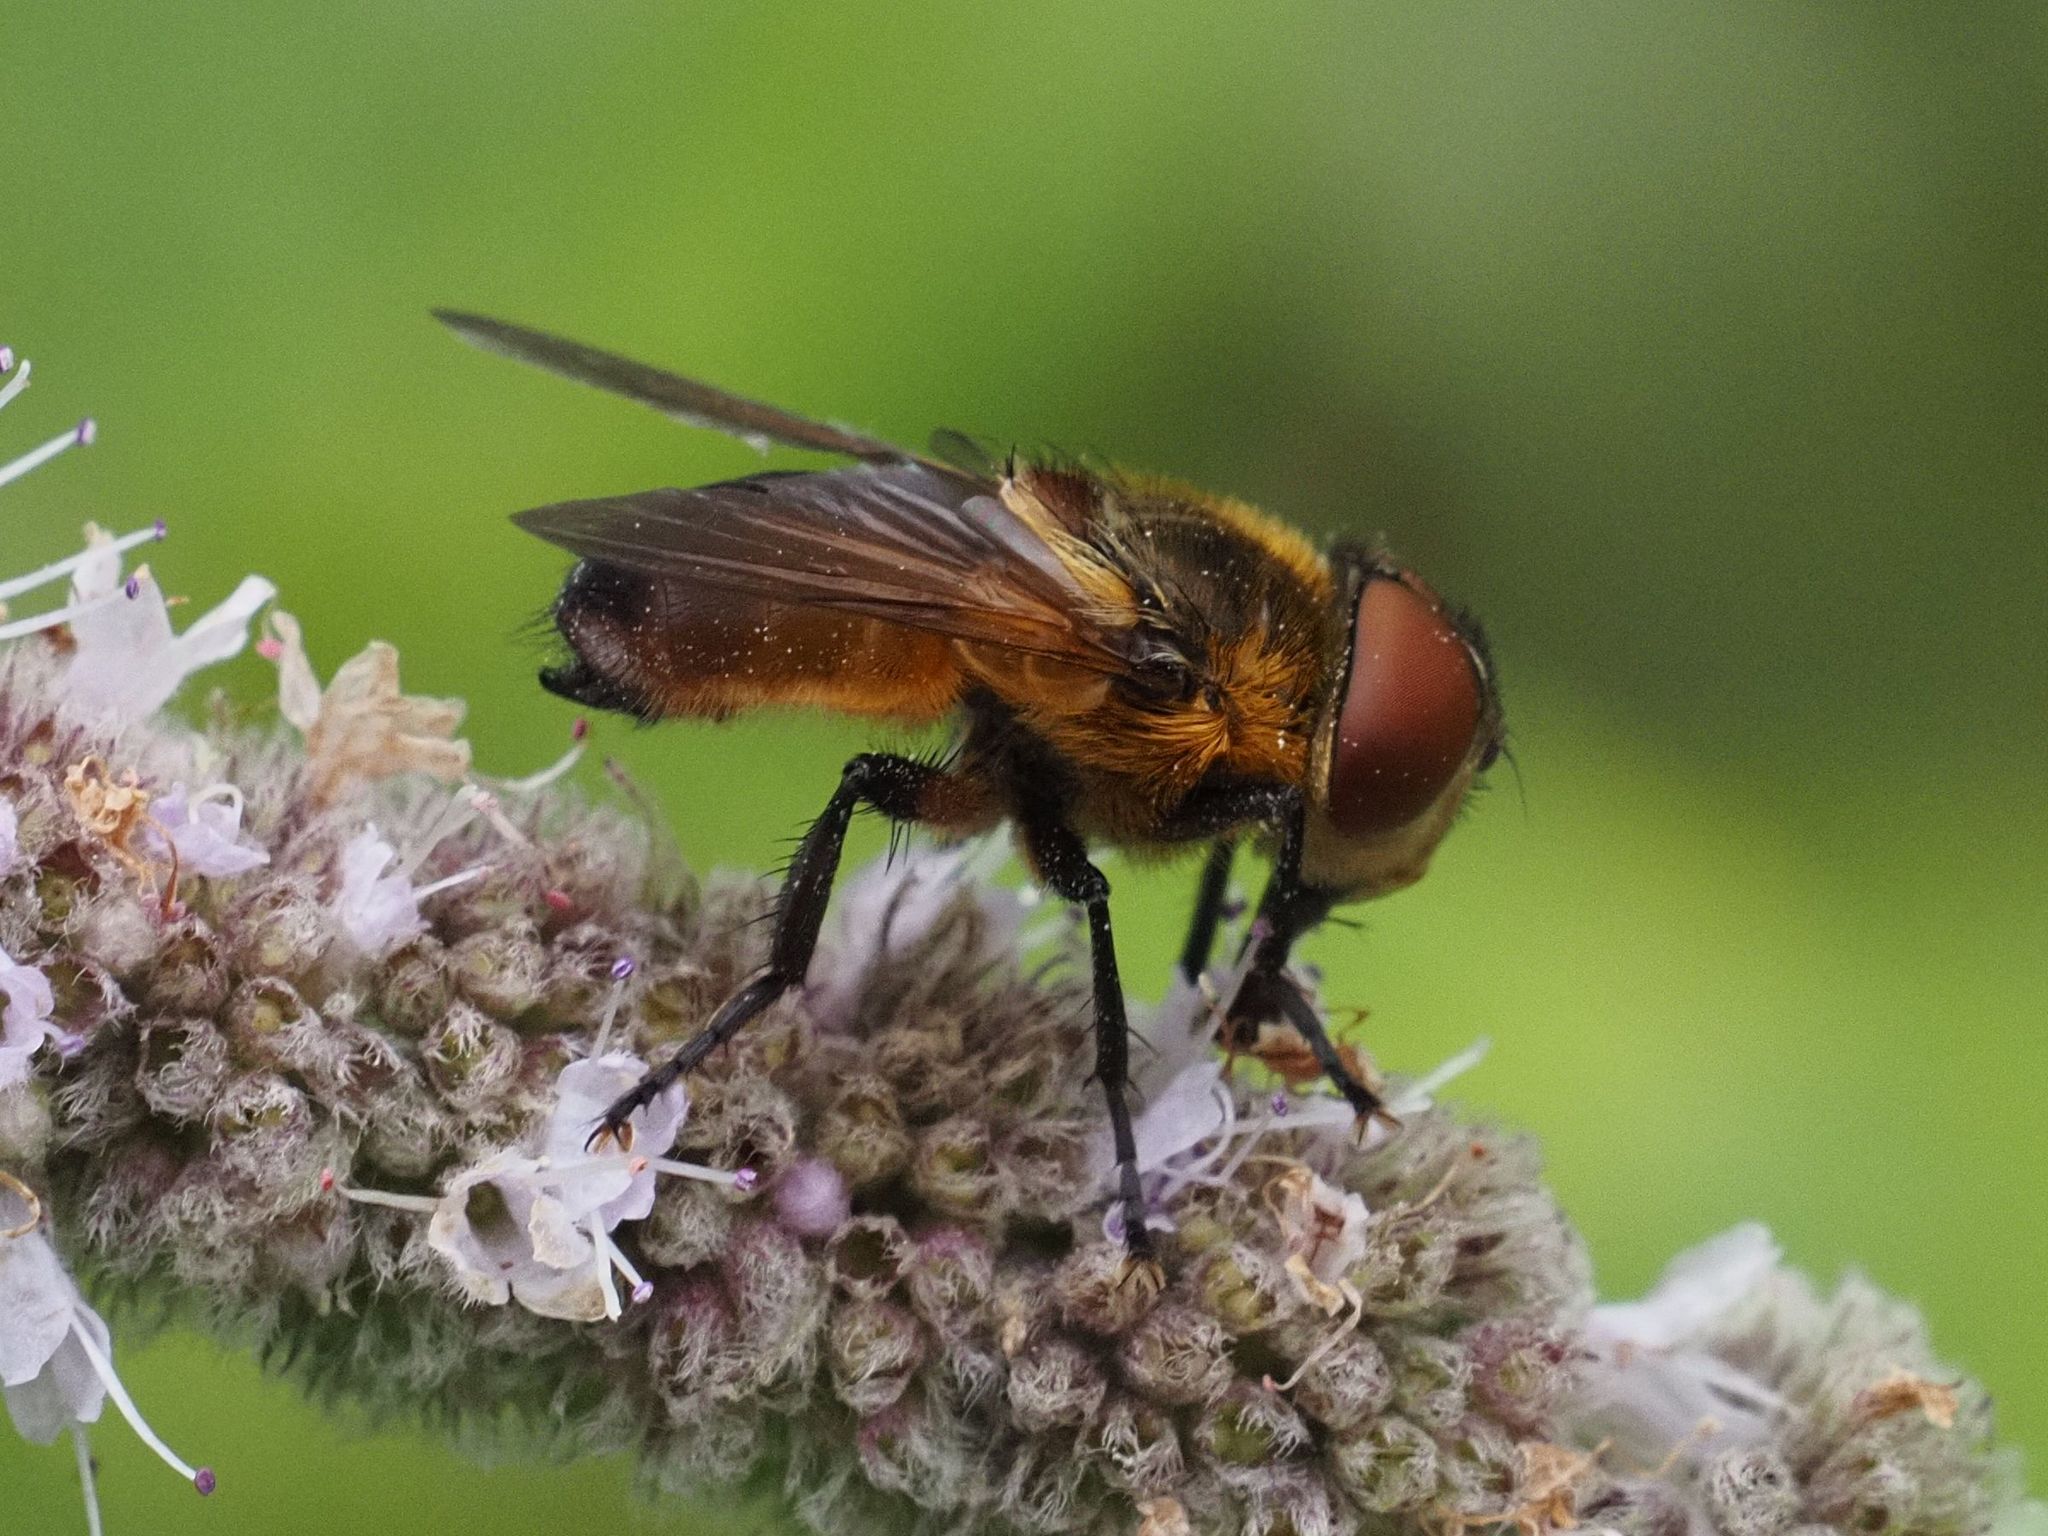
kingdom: Animalia
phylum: Arthropoda
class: Insecta
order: Diptera
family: Tachinidae
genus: Phasia
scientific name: Phasia hemiptera
